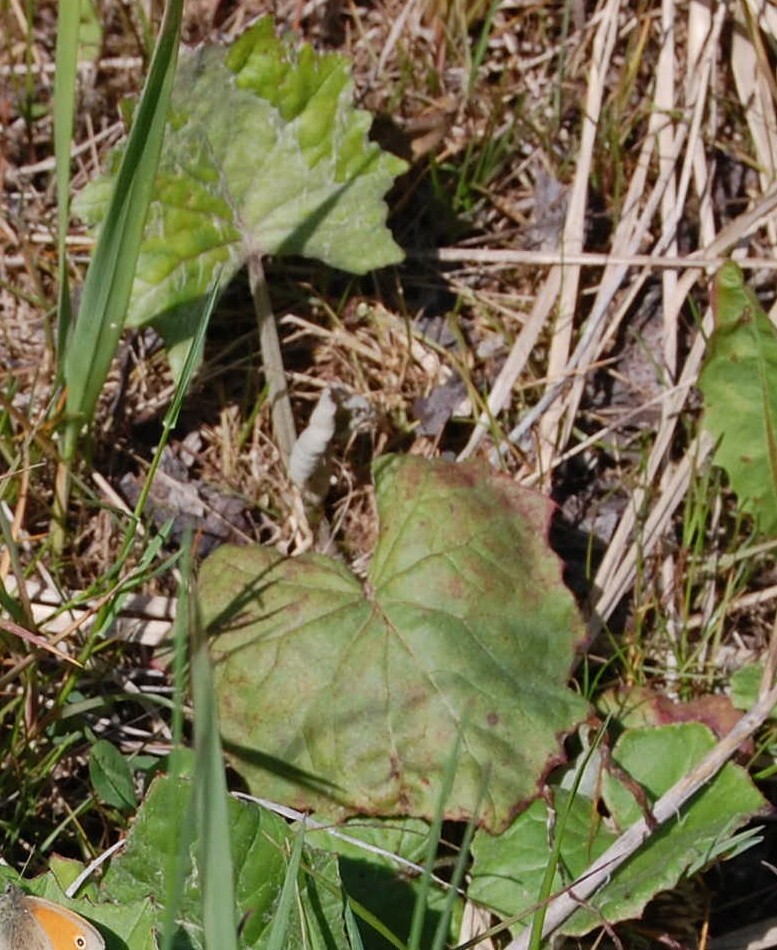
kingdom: Plantae
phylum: Tracheophyta
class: Magnoliopsida
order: Asterales
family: Asteraceae
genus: Tussilago
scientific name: Tussilago farfara
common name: Coltsfoot
